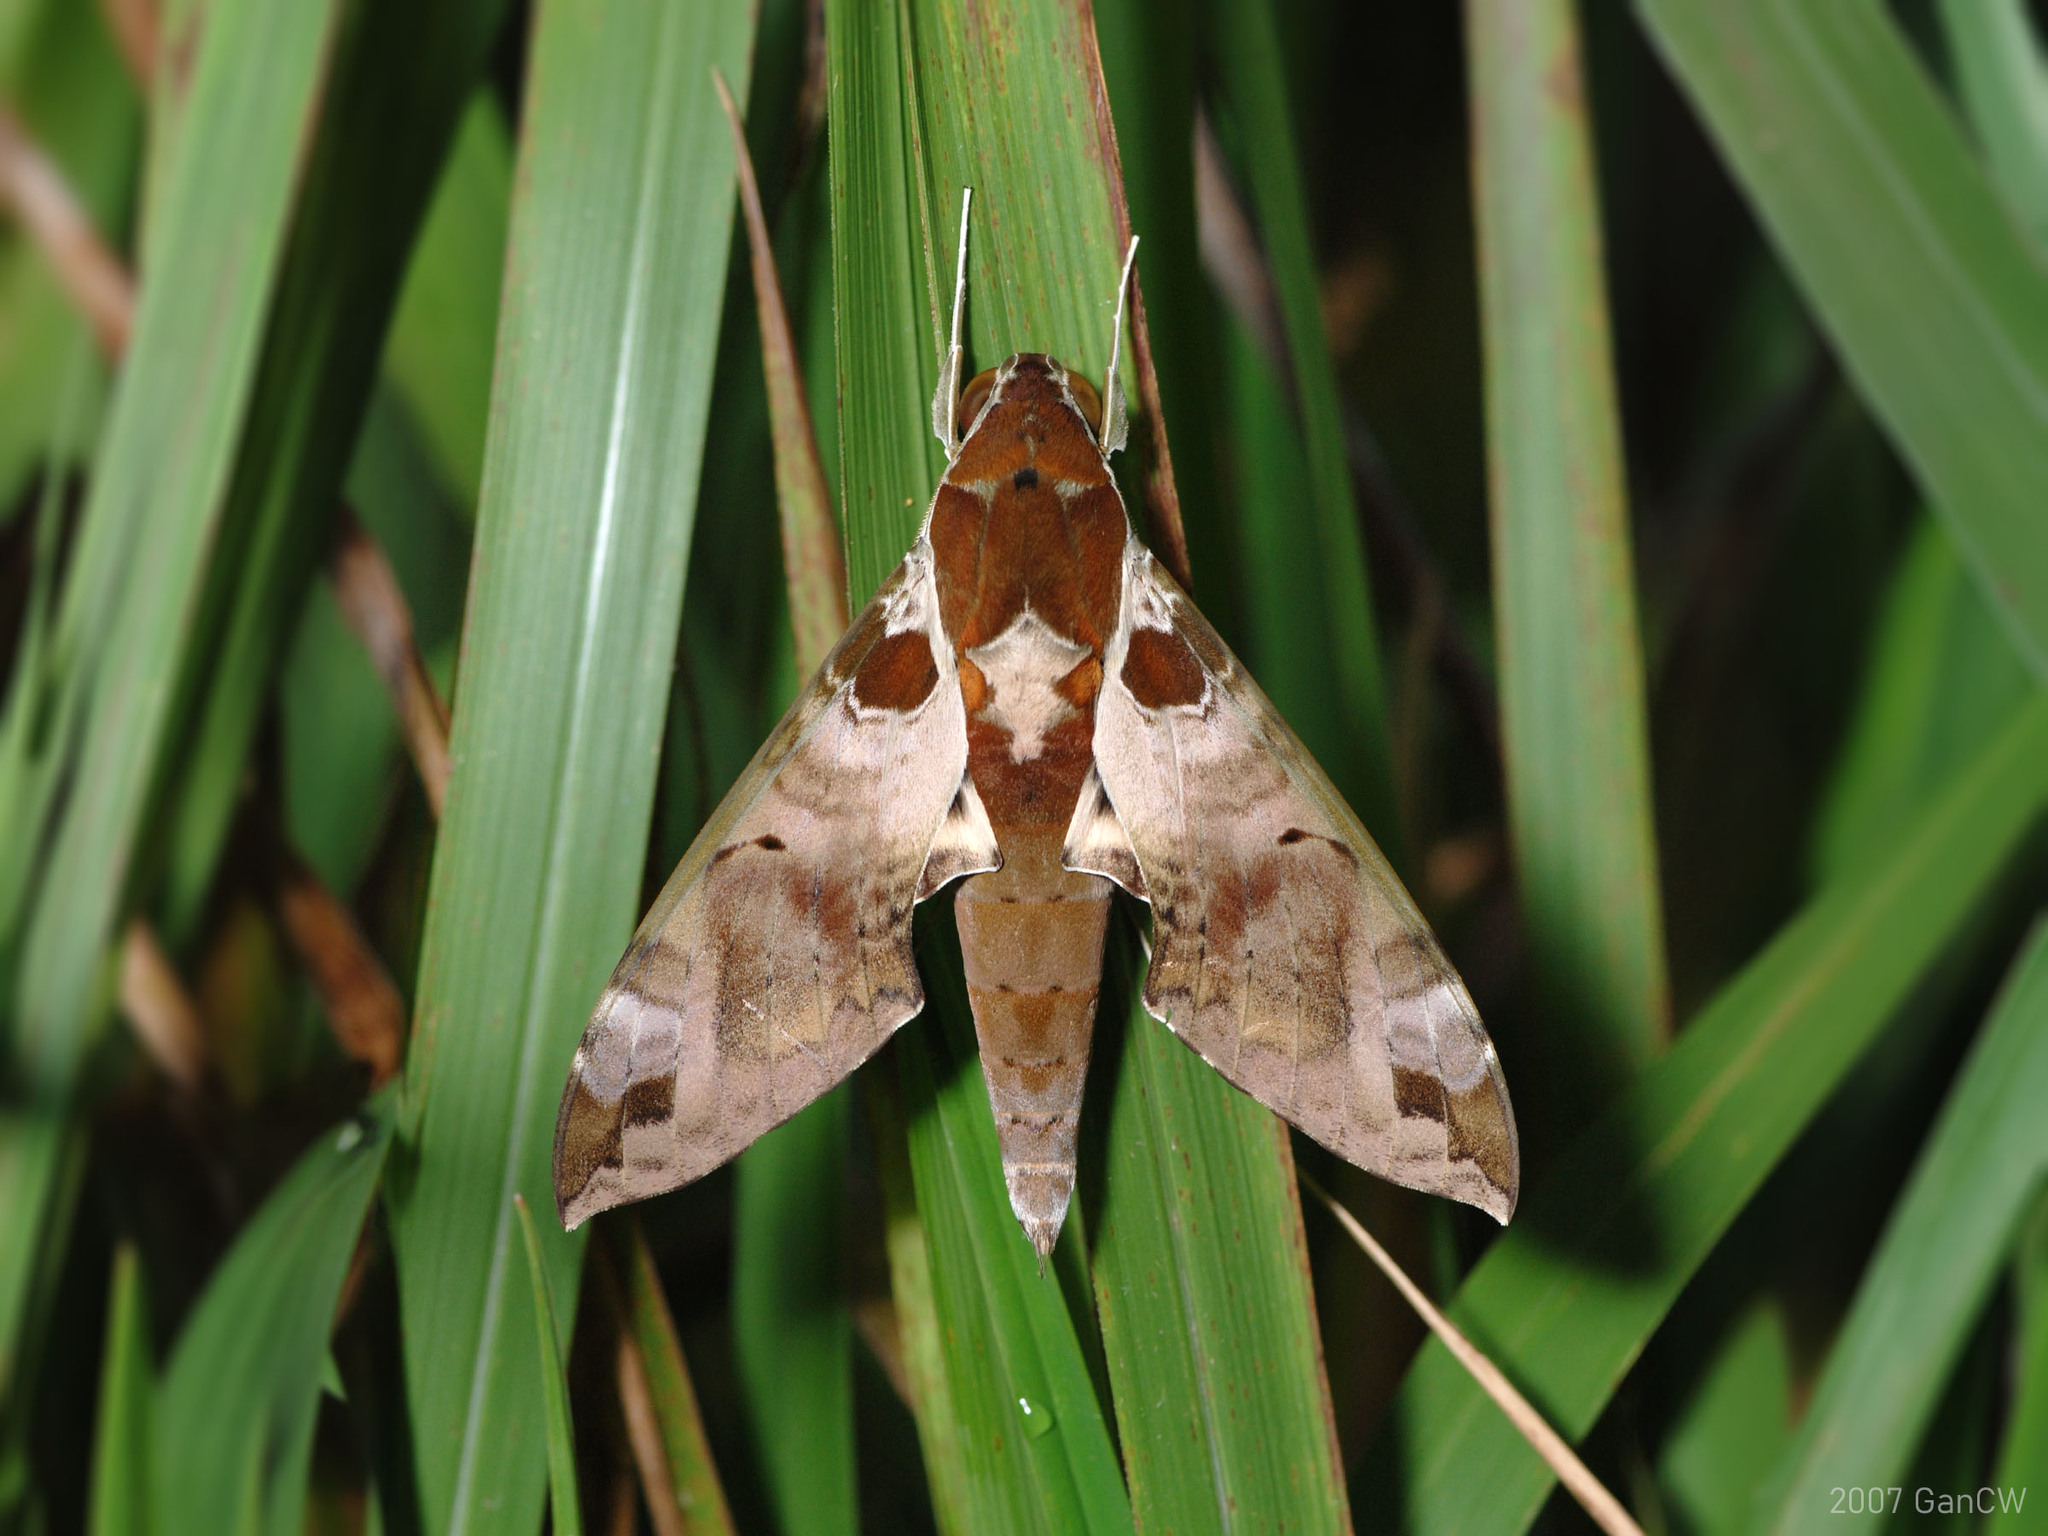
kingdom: Animalia
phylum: Arthropoda
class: Insecta
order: Lepidoptera
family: Sphingidae
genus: Cechenena
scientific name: Cechenena helops
